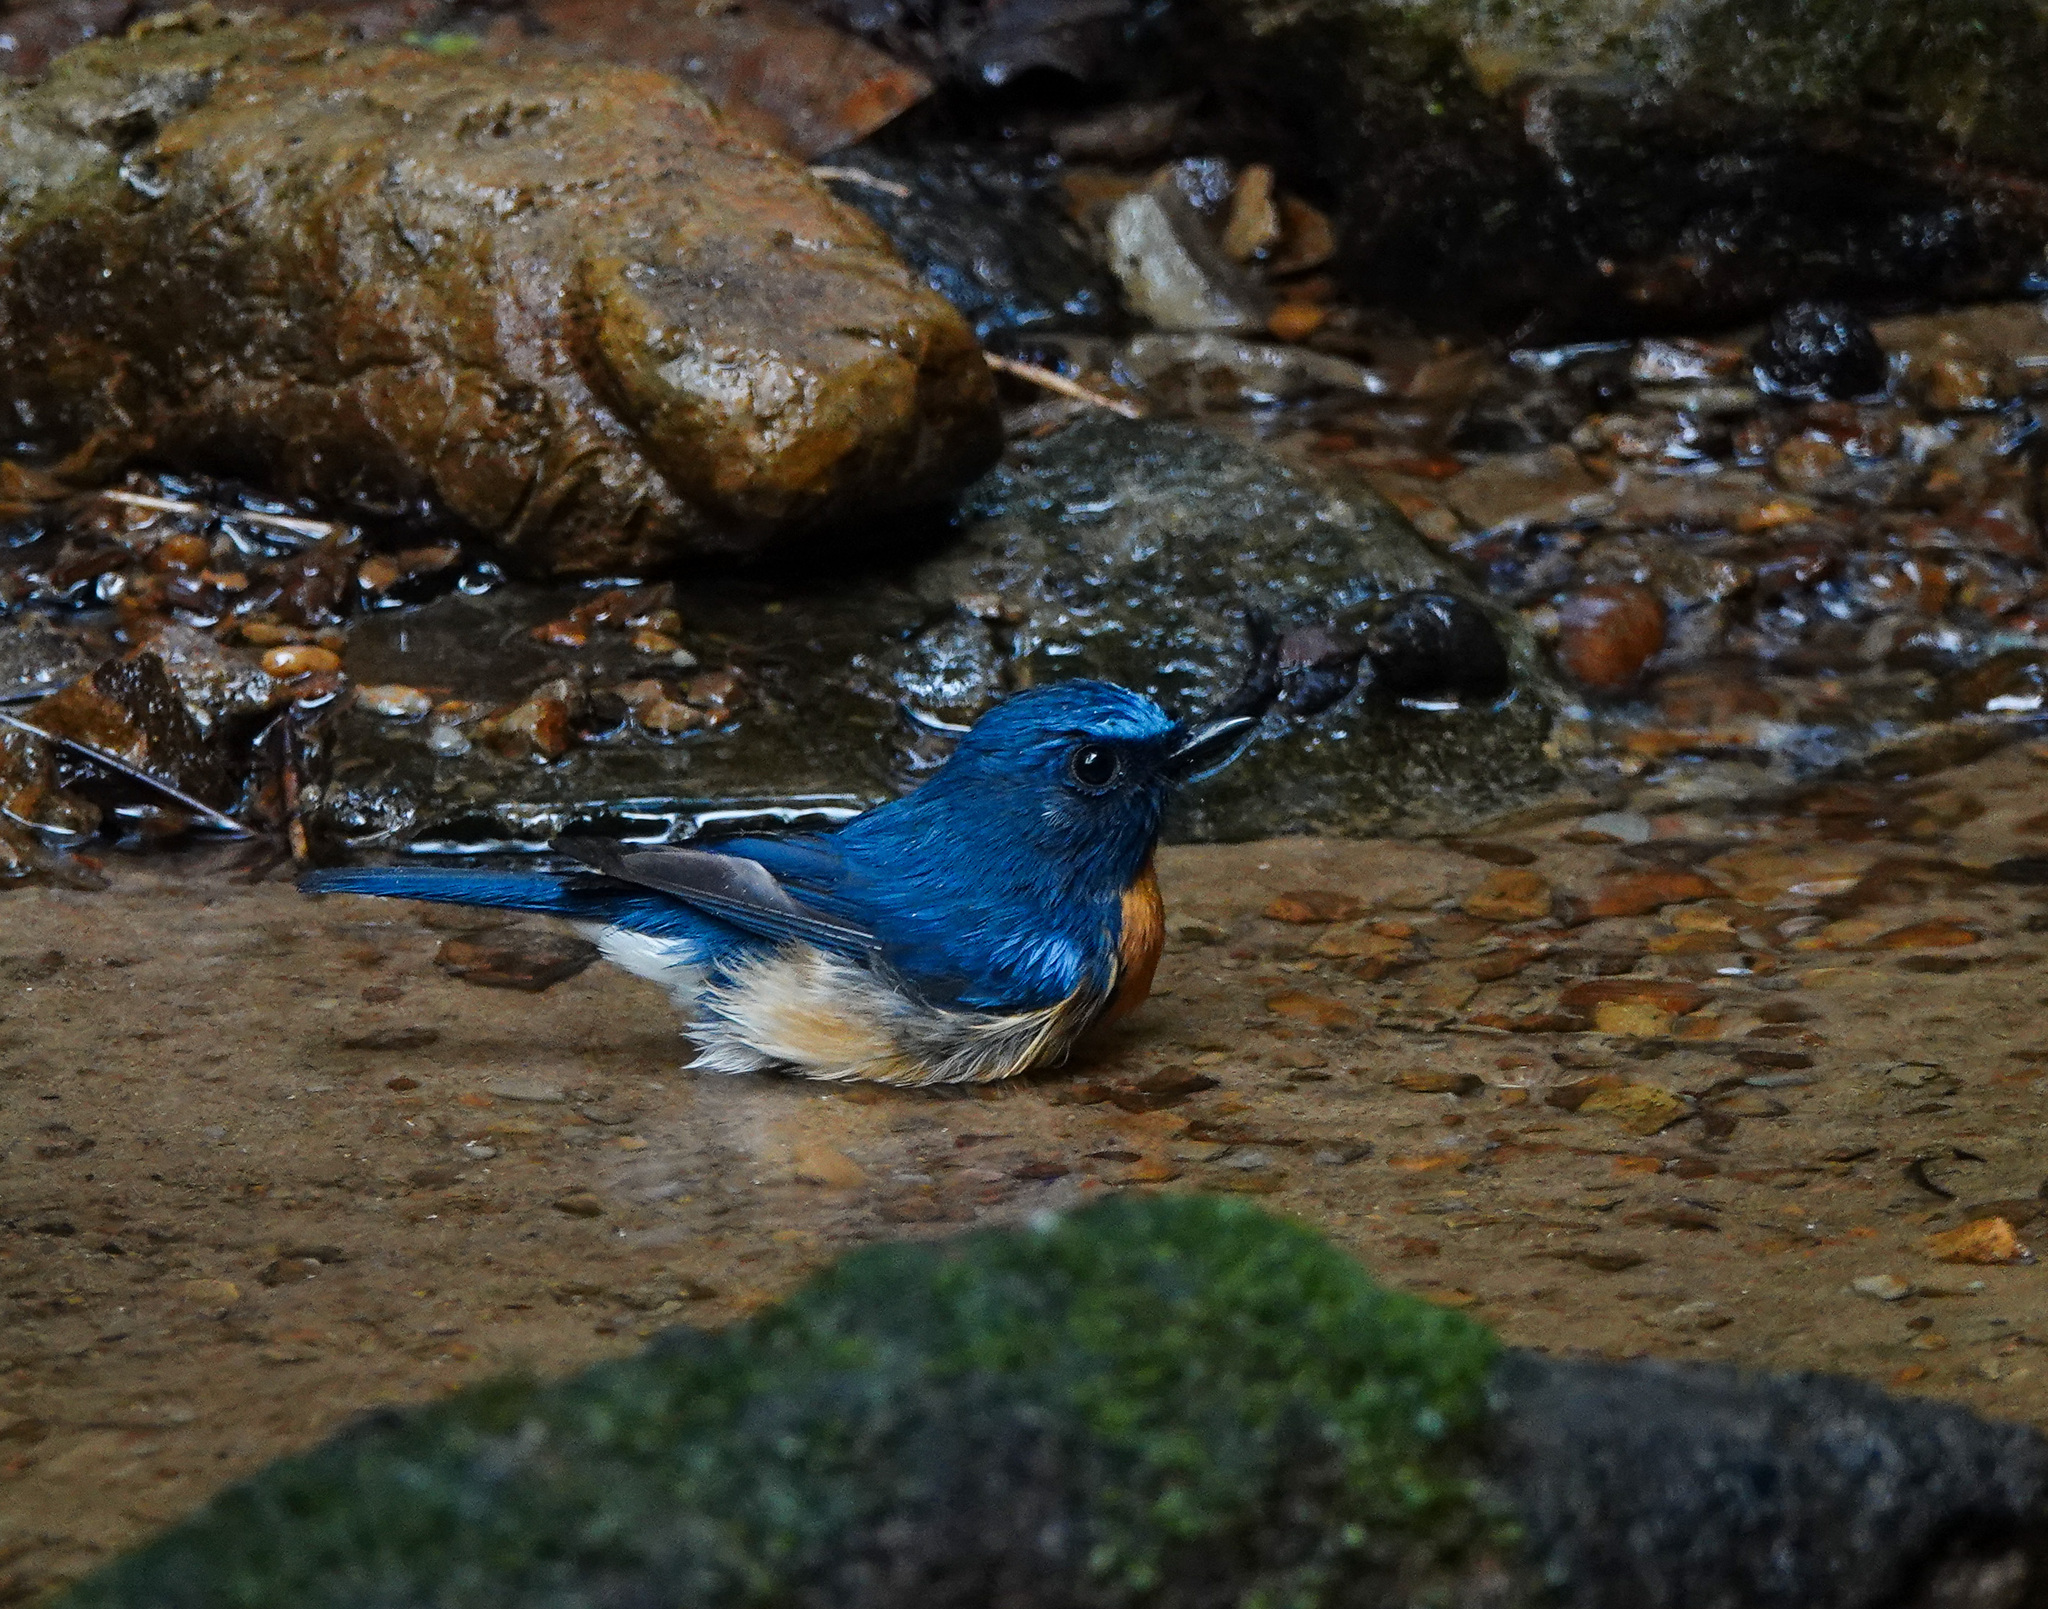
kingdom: Animalia
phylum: Chordata
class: Aves
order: Passeriformes
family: Muscicapidae
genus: Cyornis
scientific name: Cyornis rubeculoides
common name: Blue-throated blue flycatcher
